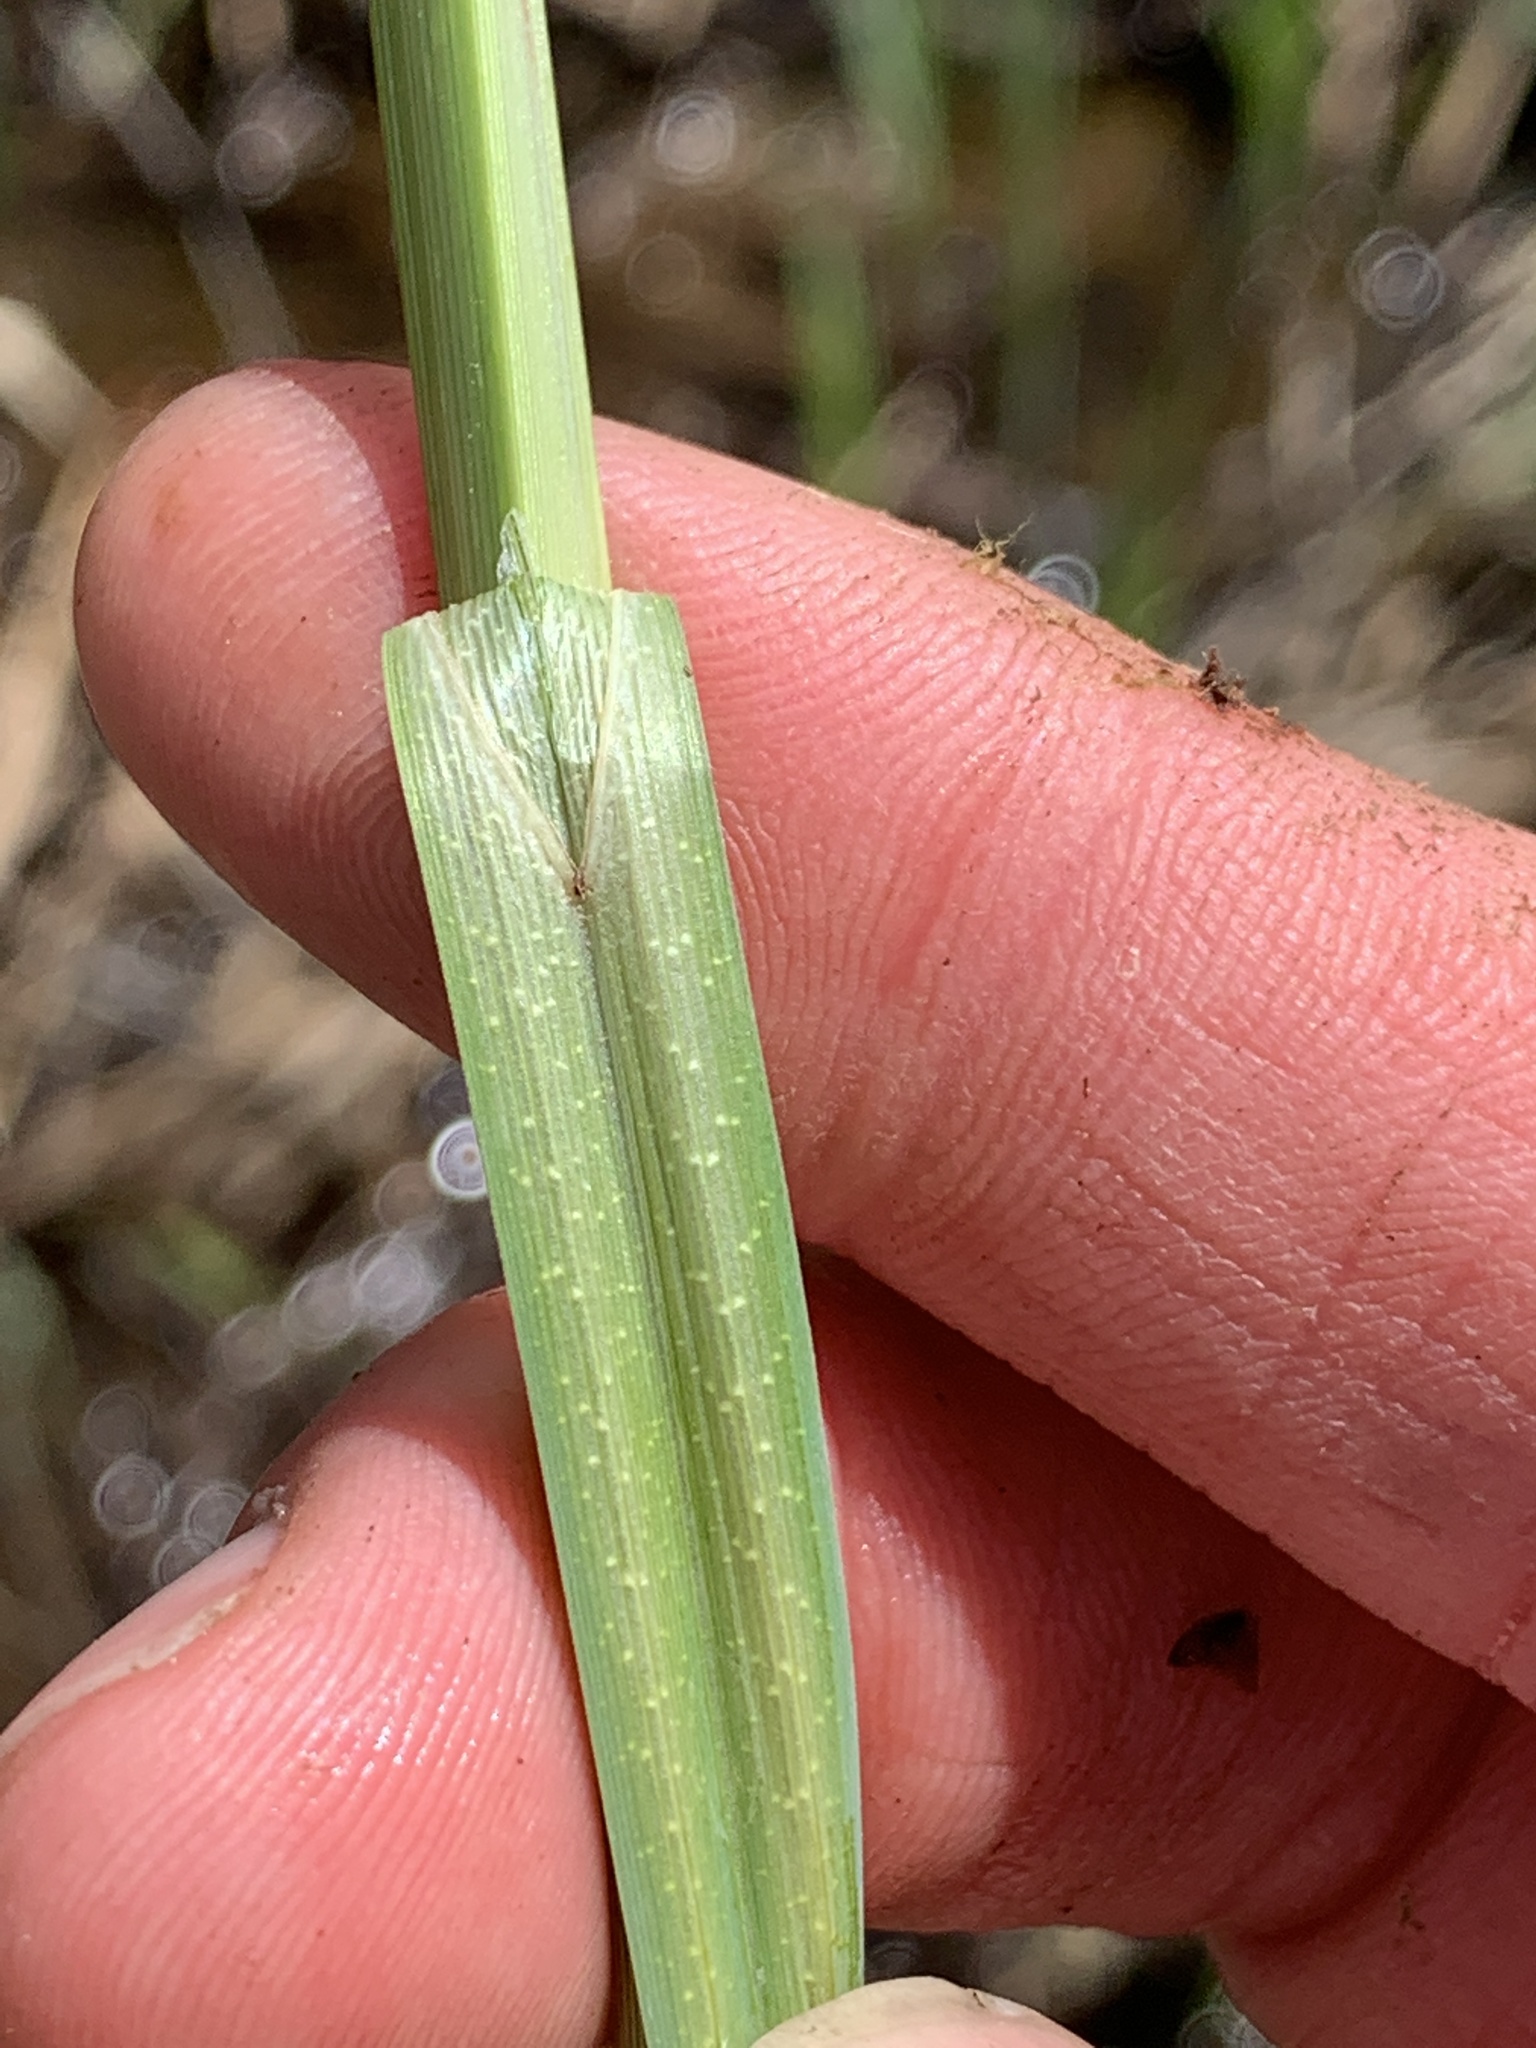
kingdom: Plantae
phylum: Tracheophyta
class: Liliopsida
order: Poales
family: Cyperaceae
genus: Carex
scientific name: Carex
